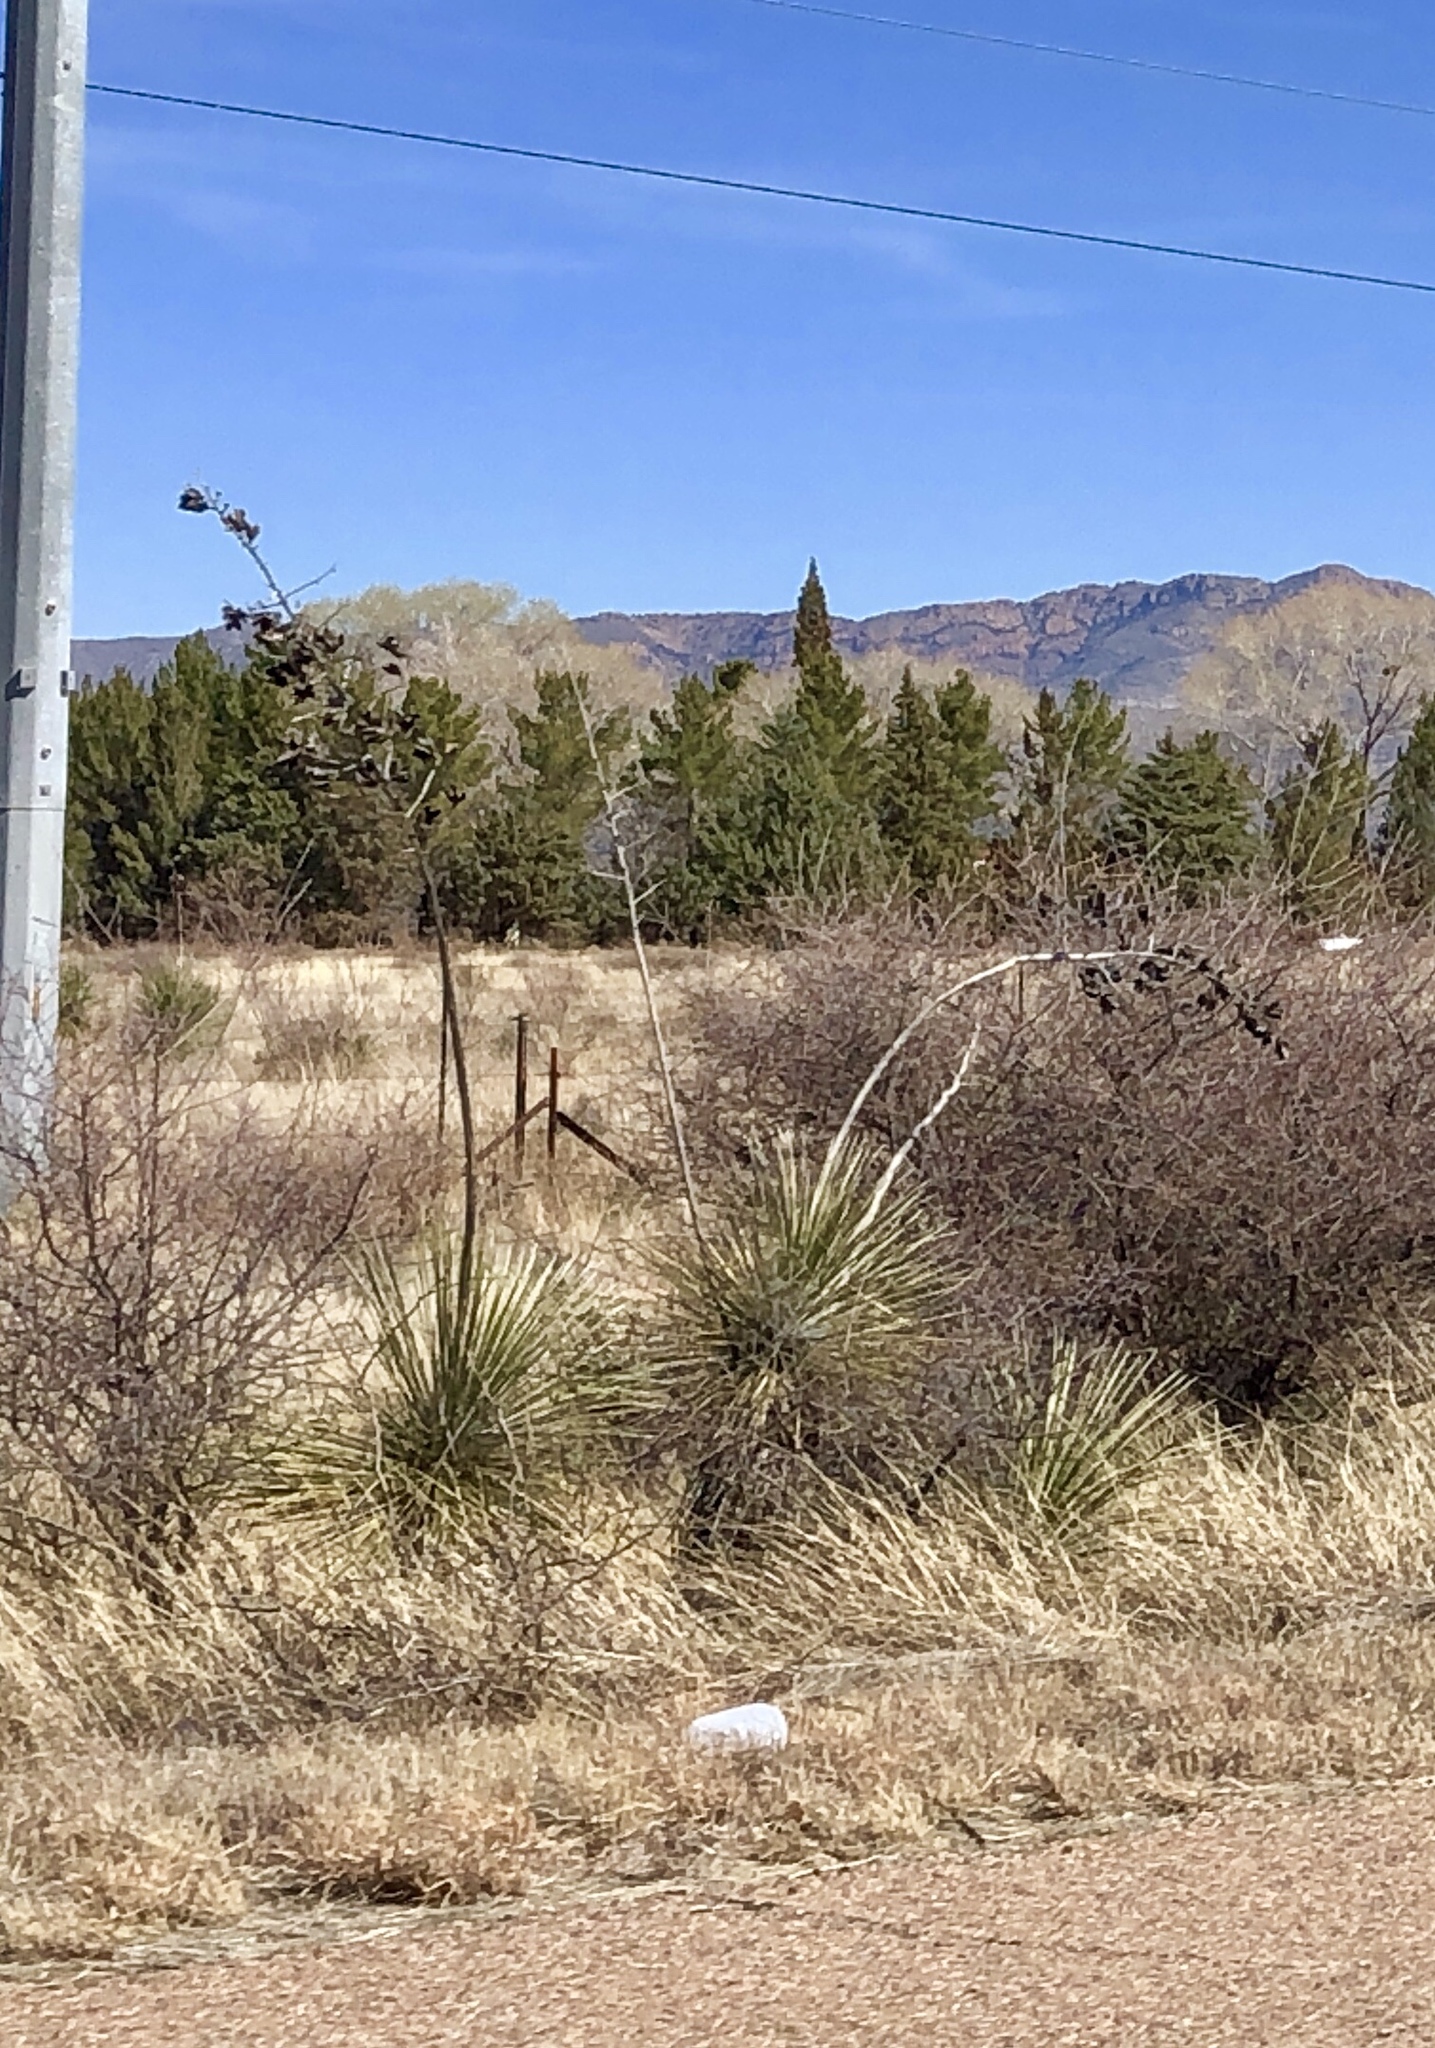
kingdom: Plantae
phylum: Tracheophyta
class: Liliopsida
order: Asparagales
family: Asparagaceae
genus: Yucca
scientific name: Yucca elata
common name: Palmella
